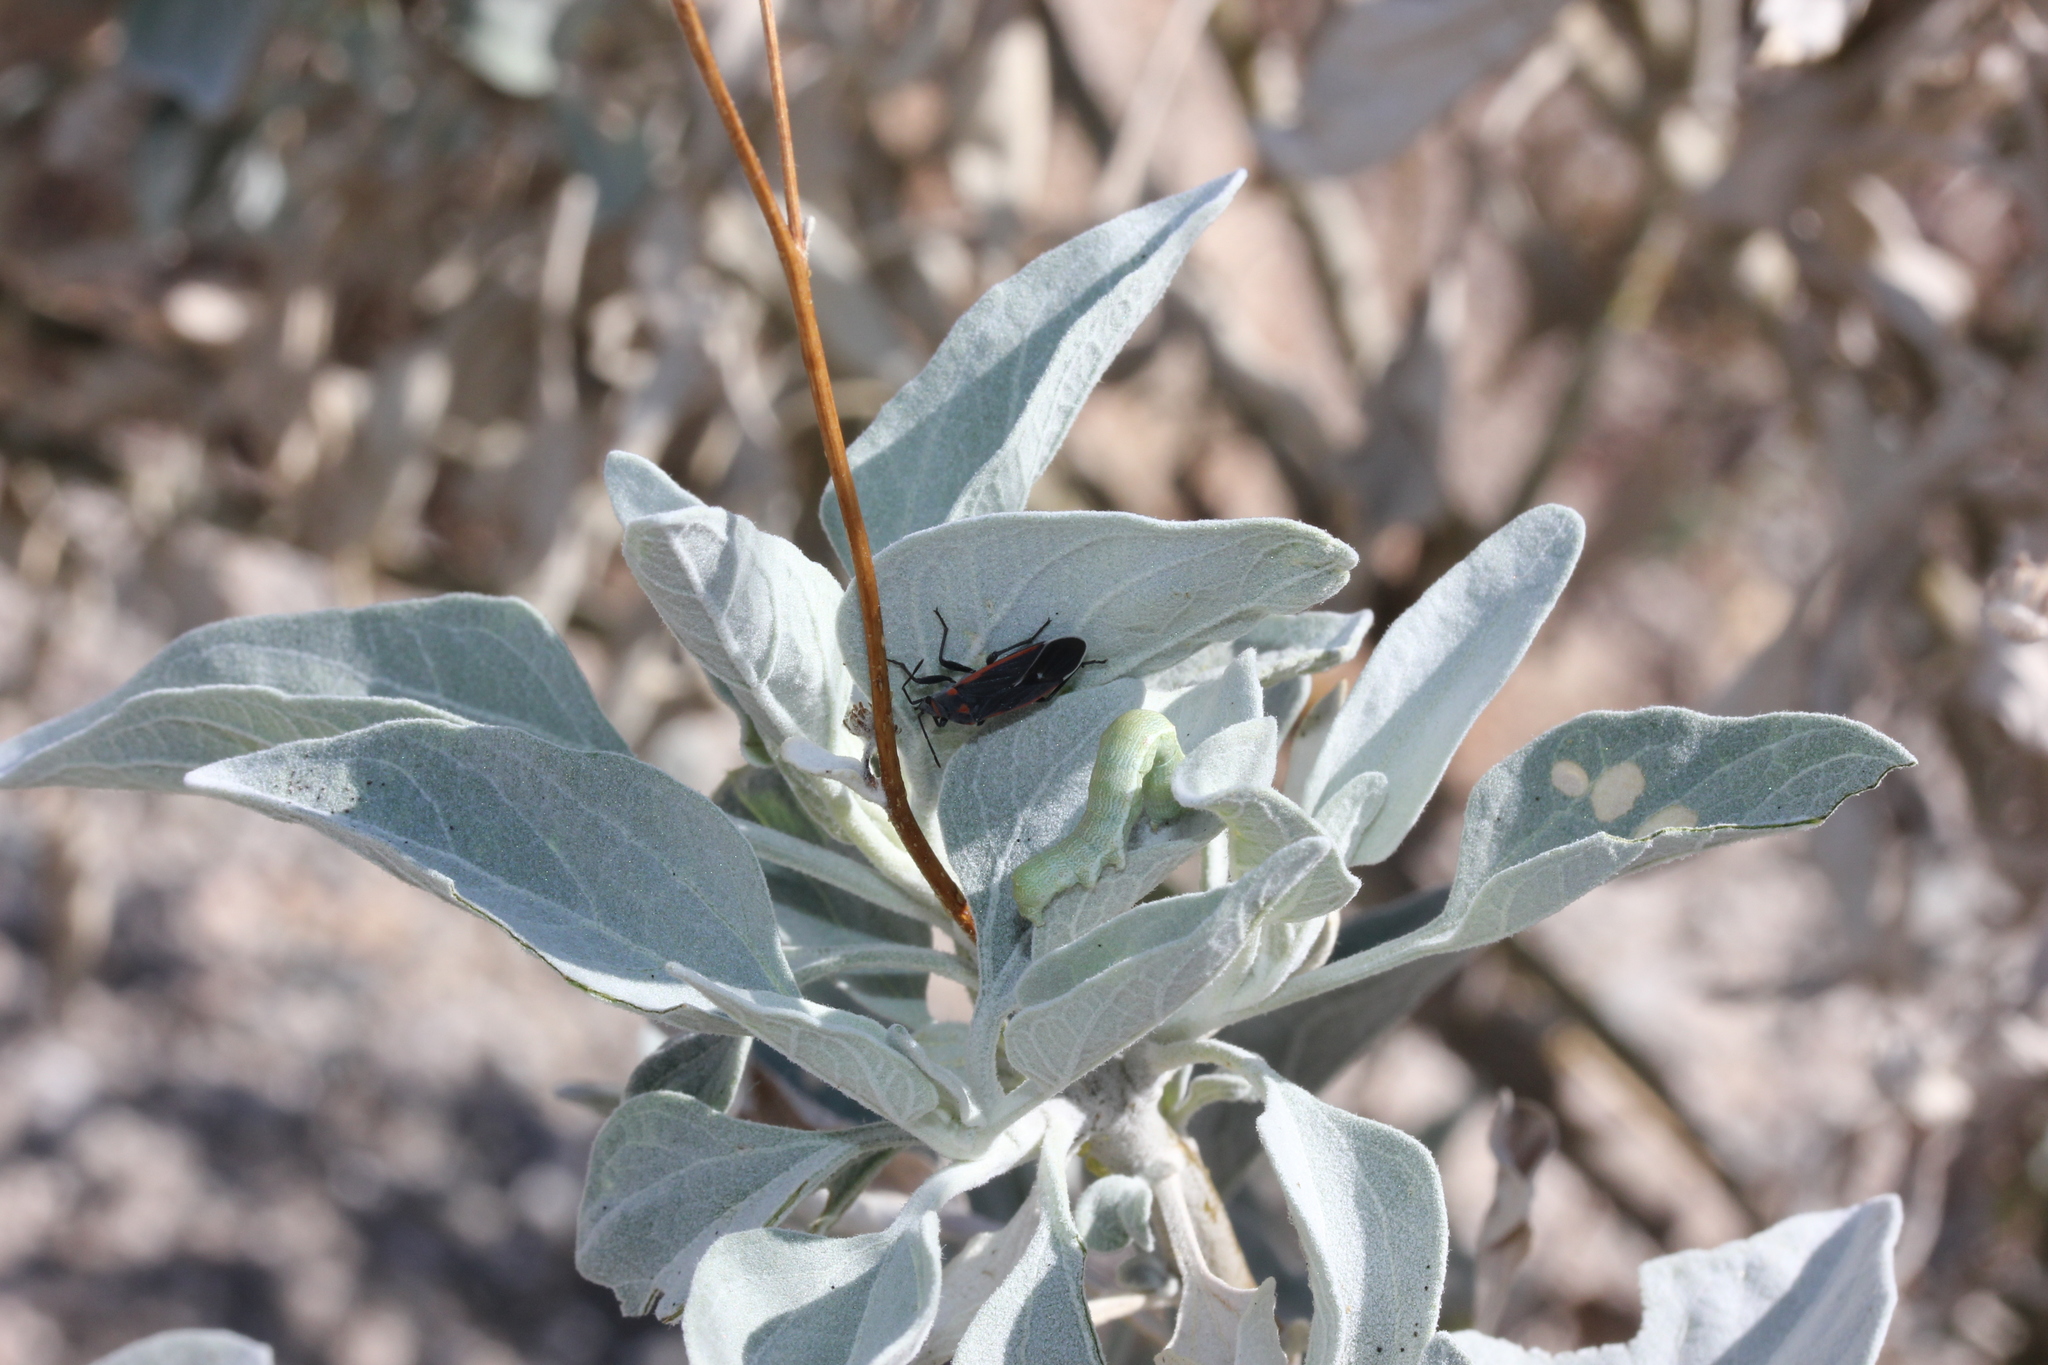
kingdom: Plantae
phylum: Tracheophyta
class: Magnoliopsida
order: Asterales
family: Asteraceae
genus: Encelia
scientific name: Encelia farinosa
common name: Brittlebush
